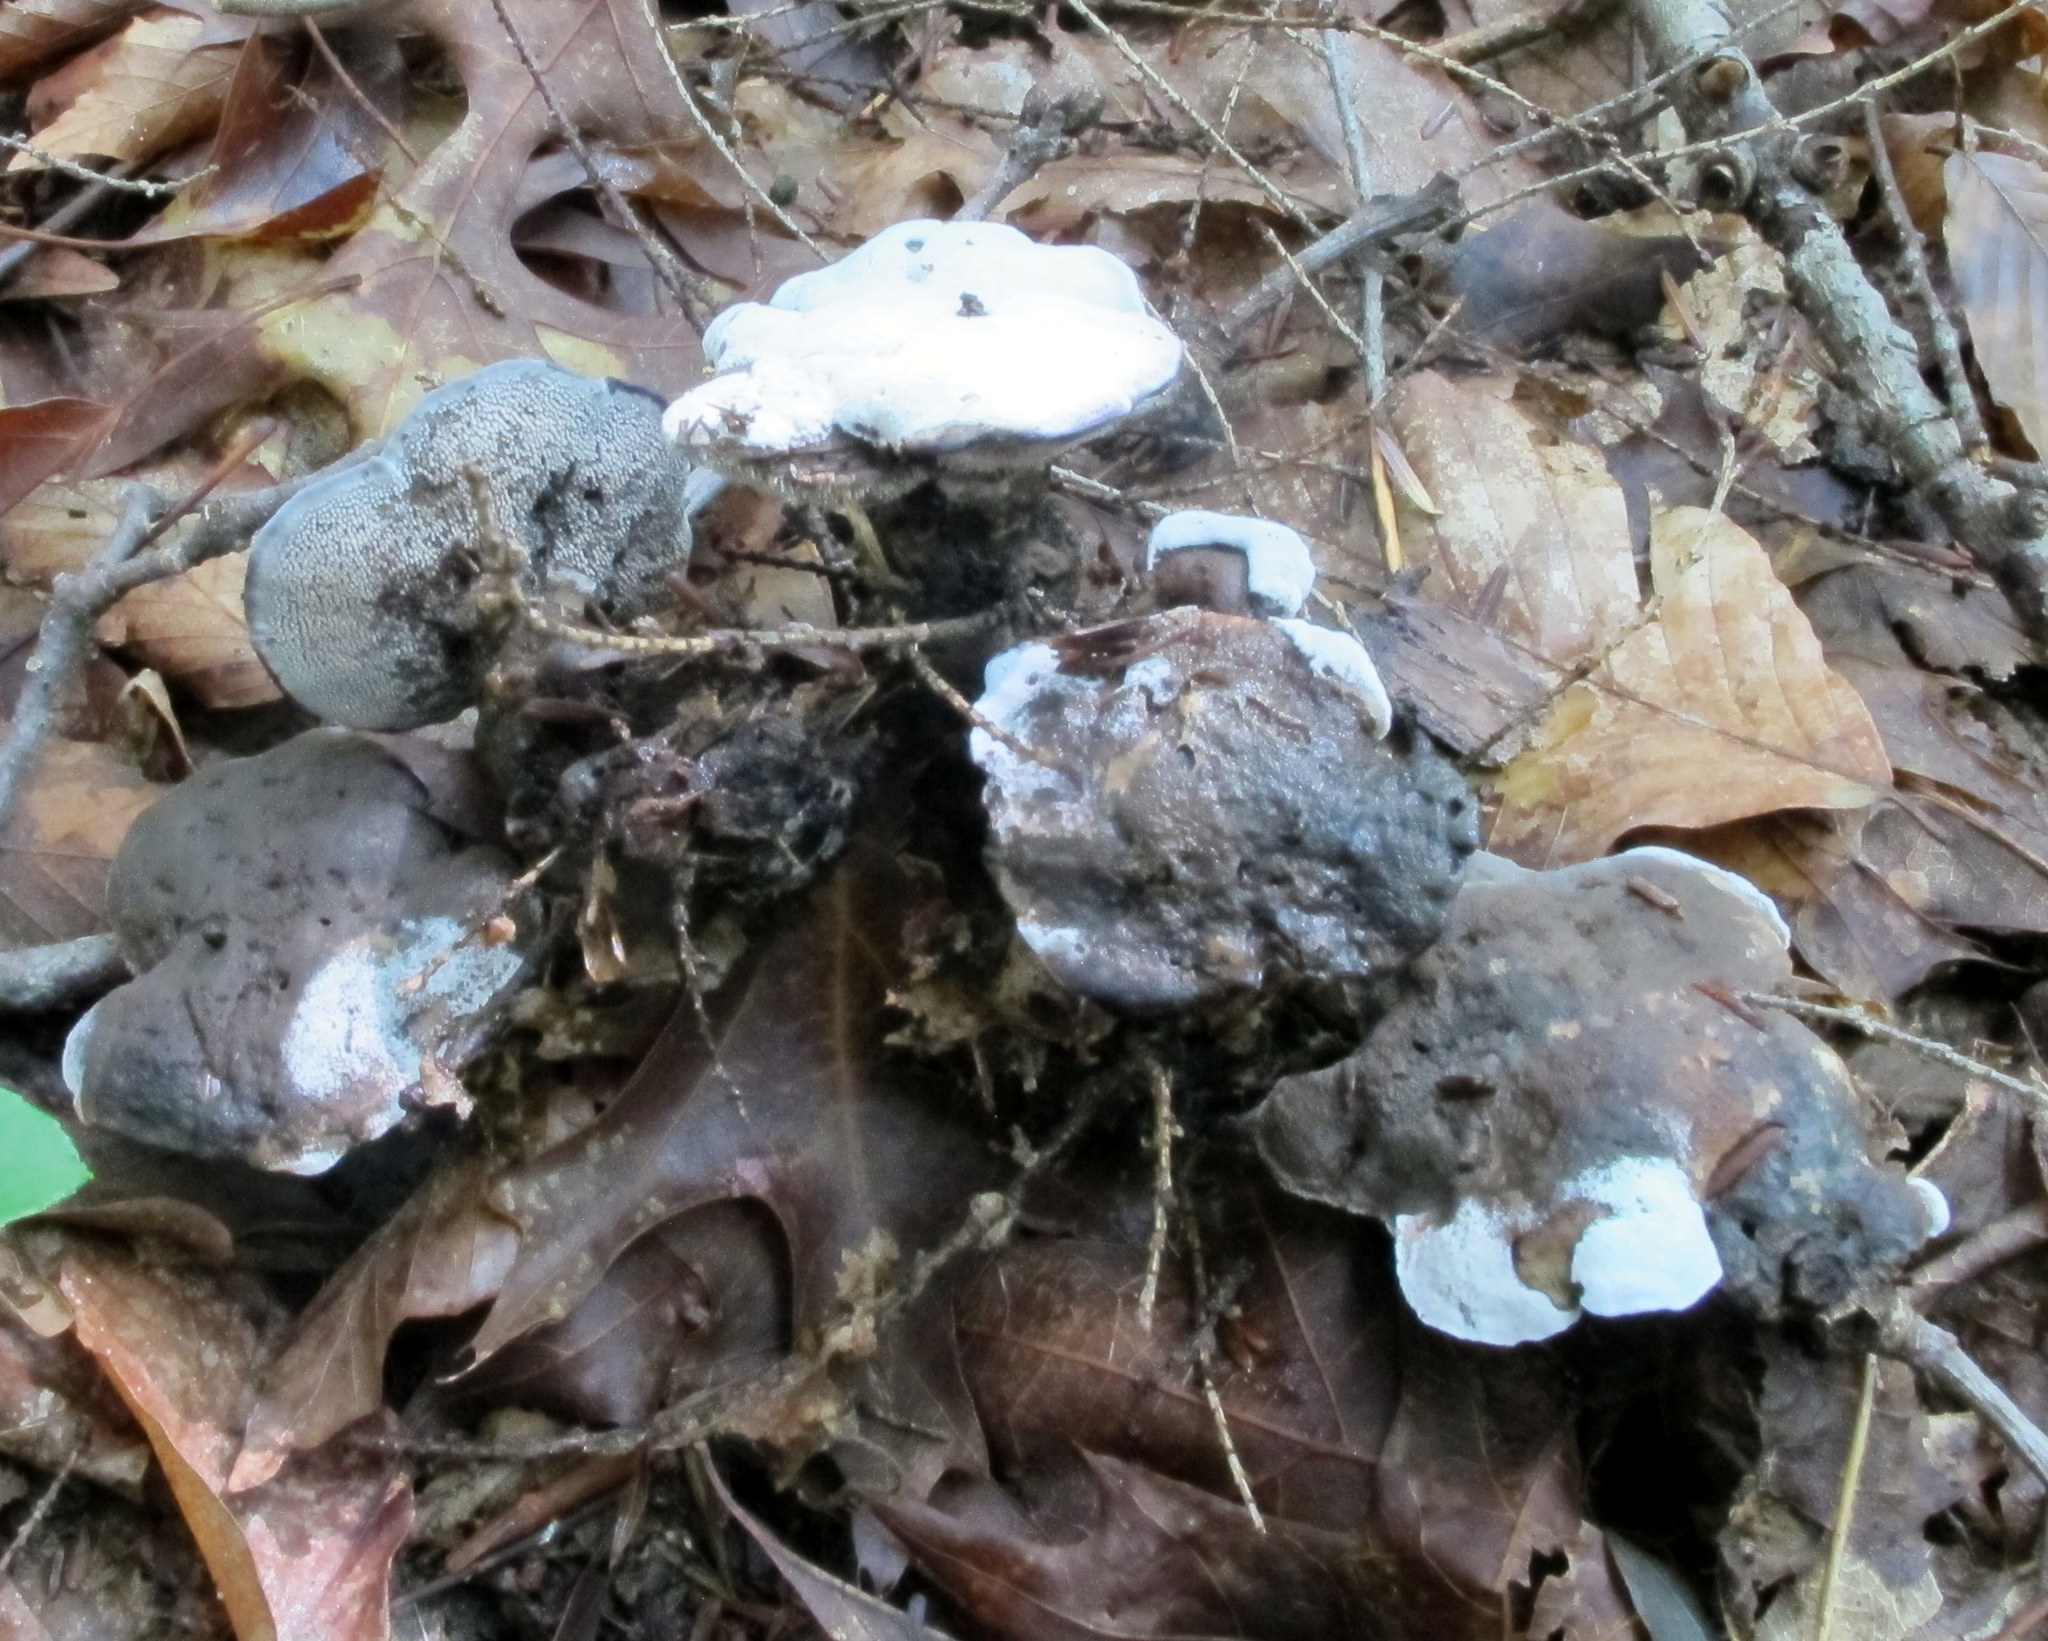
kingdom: Fungi
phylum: Basidiomycota
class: Agaricomycetes
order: Thelephorales
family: Thelephoraceae
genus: Phellodon
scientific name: Phellodon melaleucus
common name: Grey tooth
